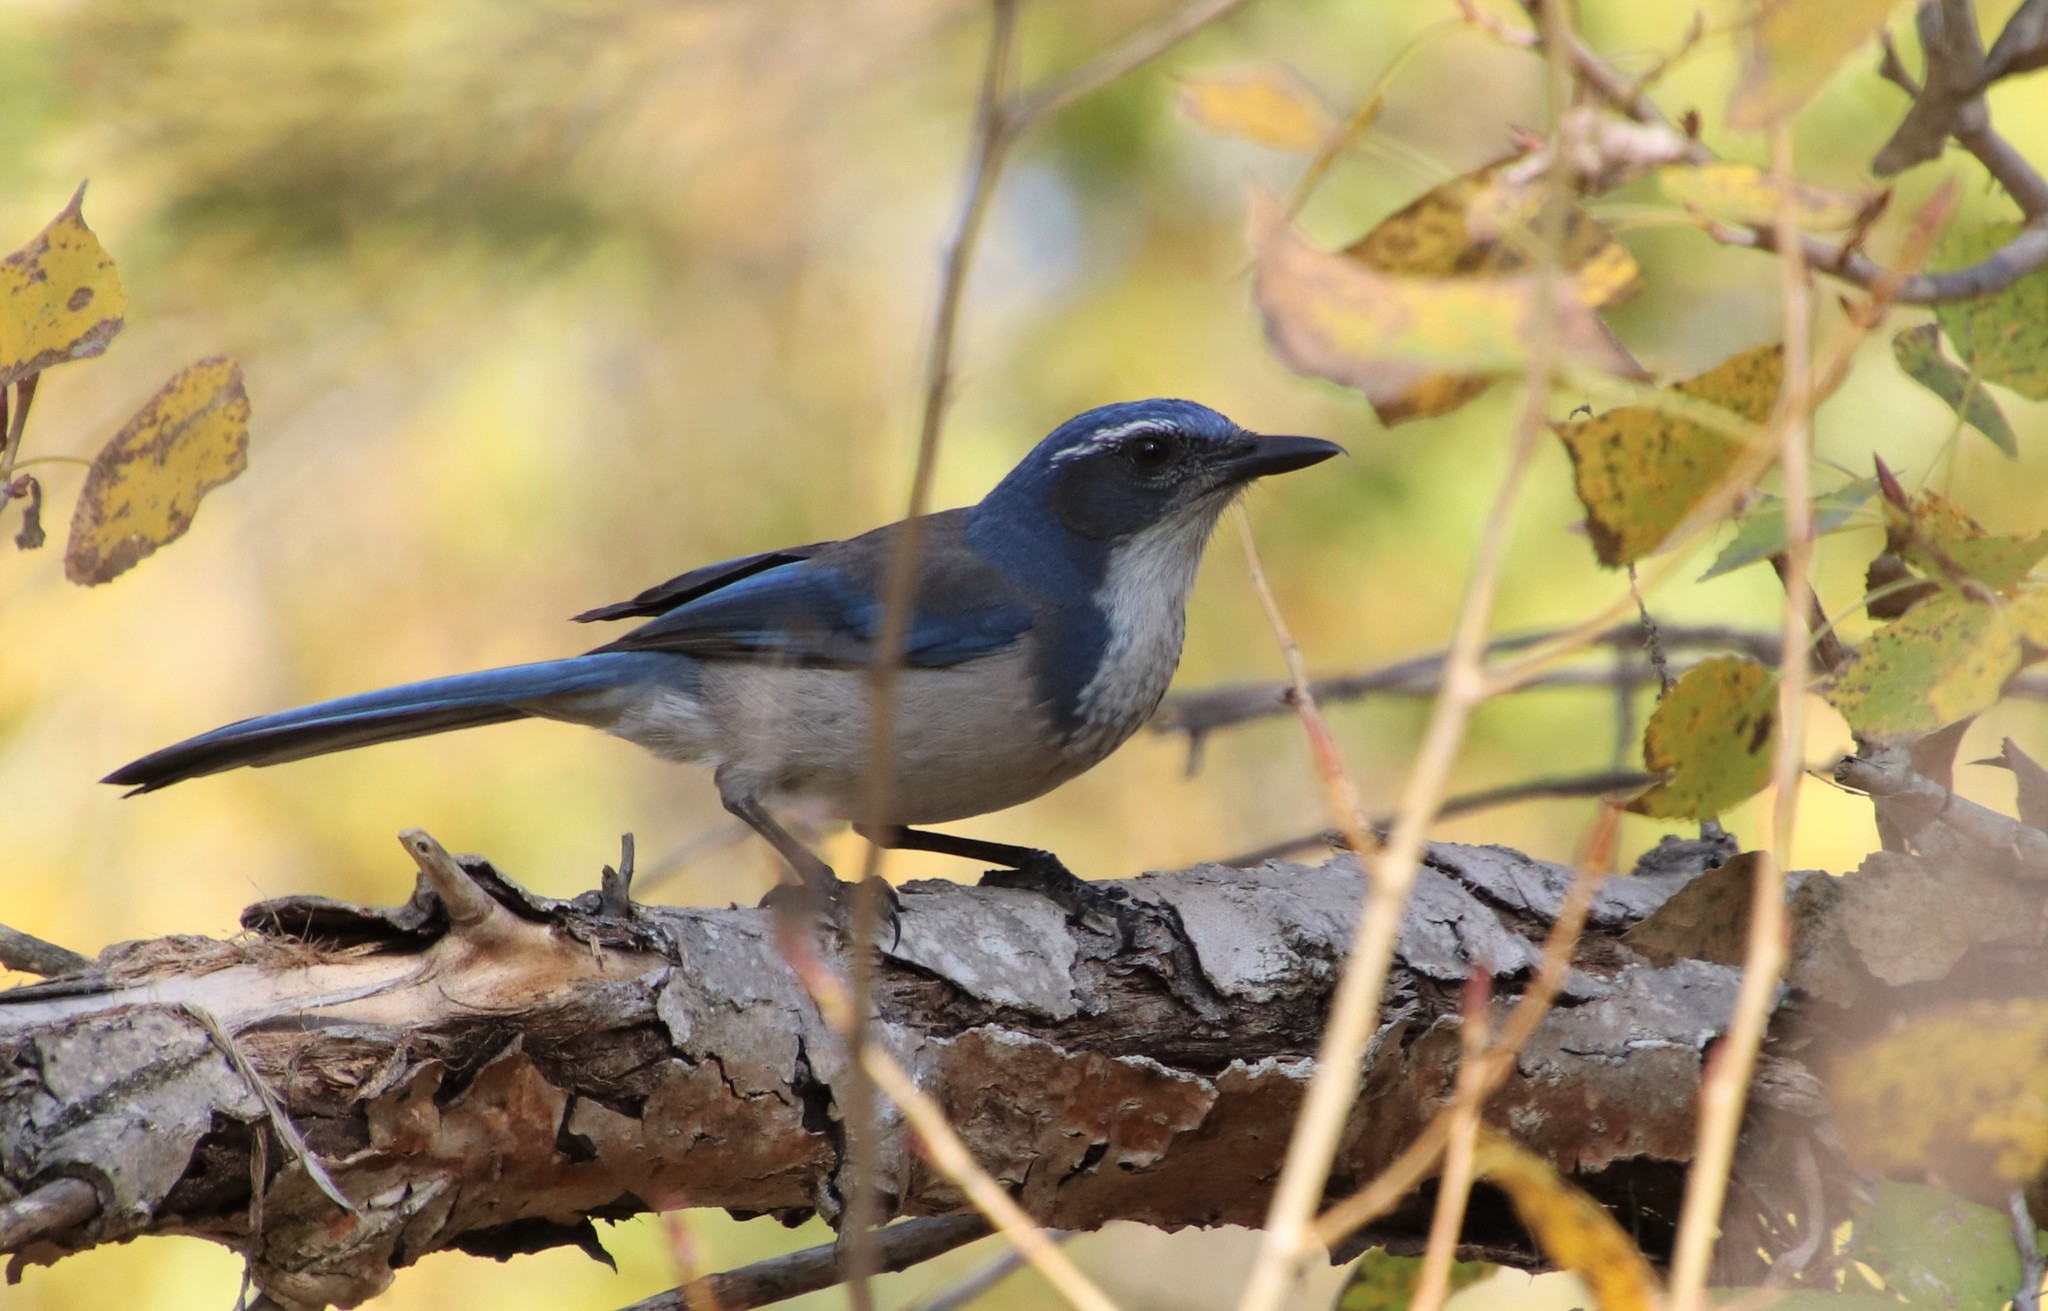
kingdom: Animalia
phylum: Chordata
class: Aves
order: Passeriformes
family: Corvidae
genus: Aphelocoma
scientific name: Aphelocoma californica
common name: California scrub-jay
